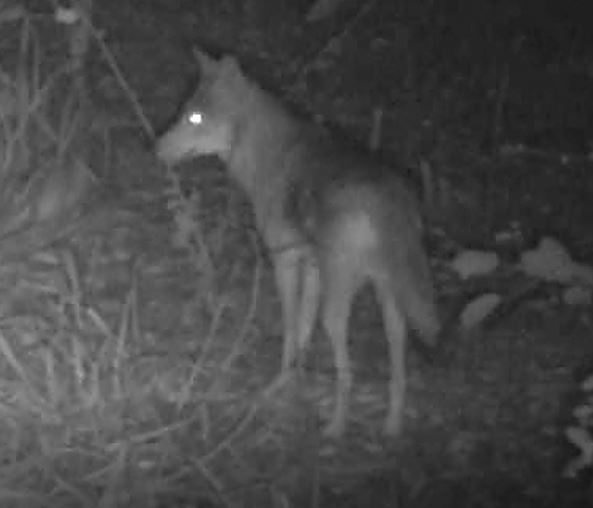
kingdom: Animalia
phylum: Chordata
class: Mammalia
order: Carnivora
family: Canidae
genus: Canis
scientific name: Canis latrans
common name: Coyote
